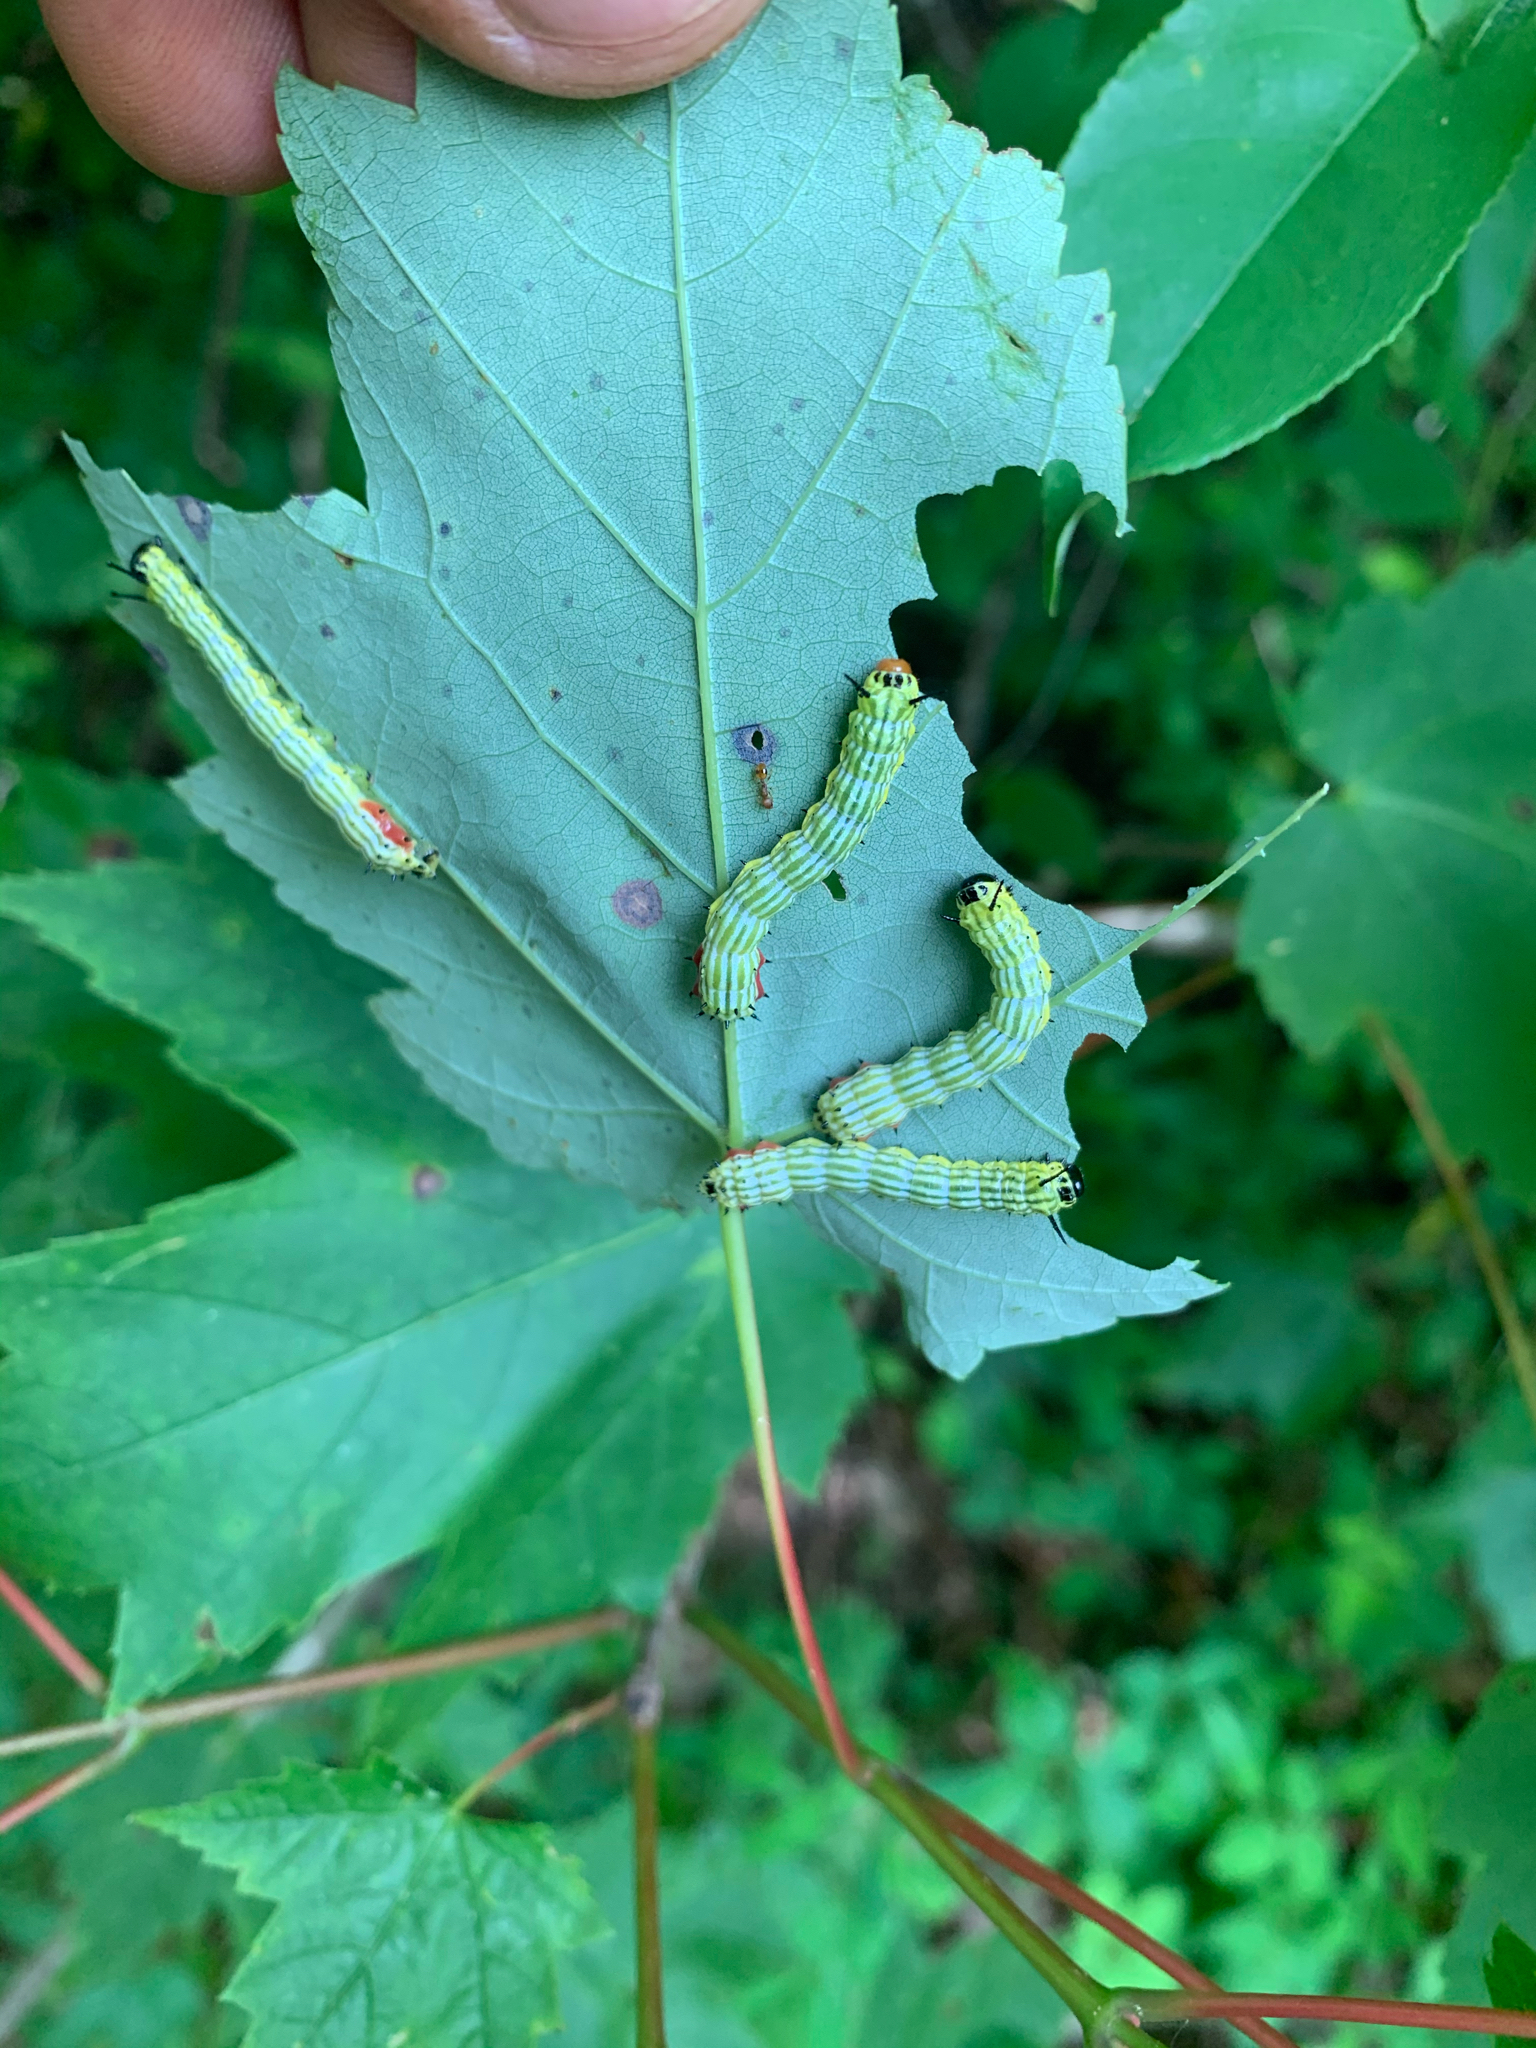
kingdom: Animalia
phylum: Arthropoda
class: Insecta
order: Lepidoptera
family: Saturniidae
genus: Dryocampa
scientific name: Dryocampa rubicunda
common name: Rosy maple moth
